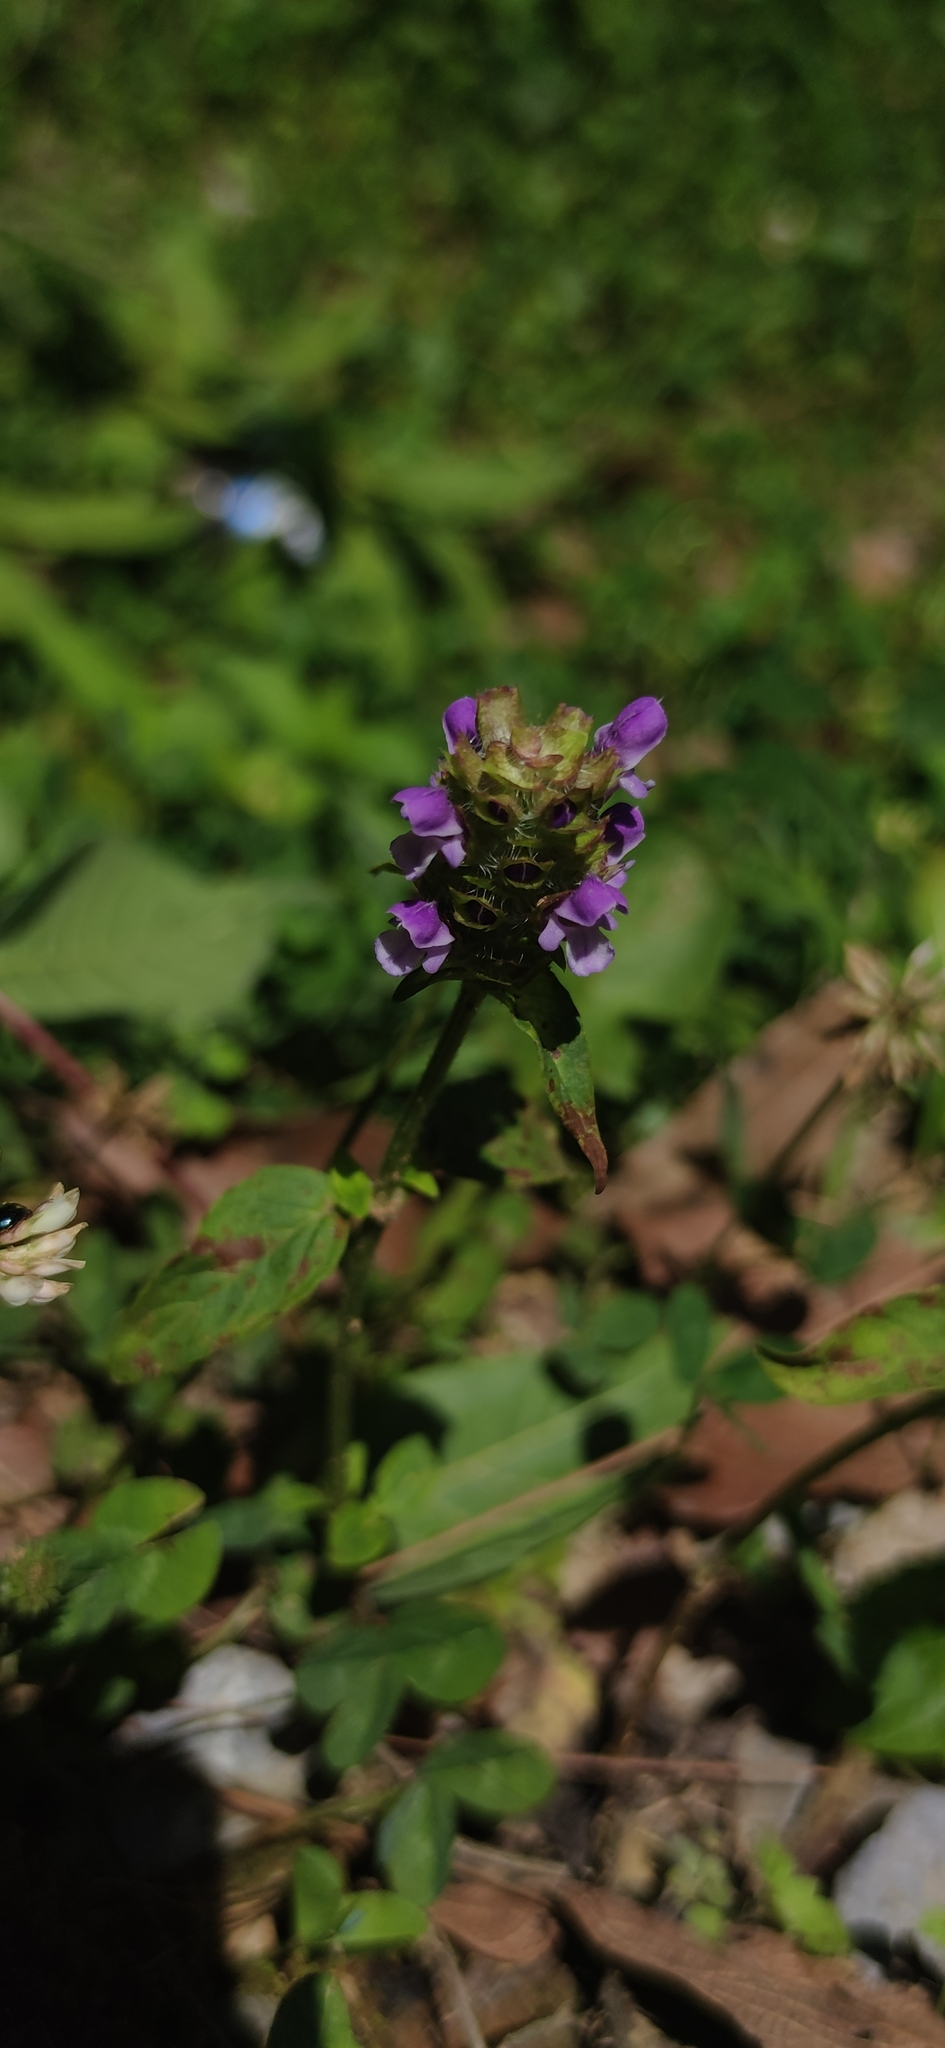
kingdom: Plantae
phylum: Tracheophyta
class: Magnoliopsida
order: Lamiales
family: Lamiaceae
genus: Prunella
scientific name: Prunella vulgaris
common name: Heal-all
